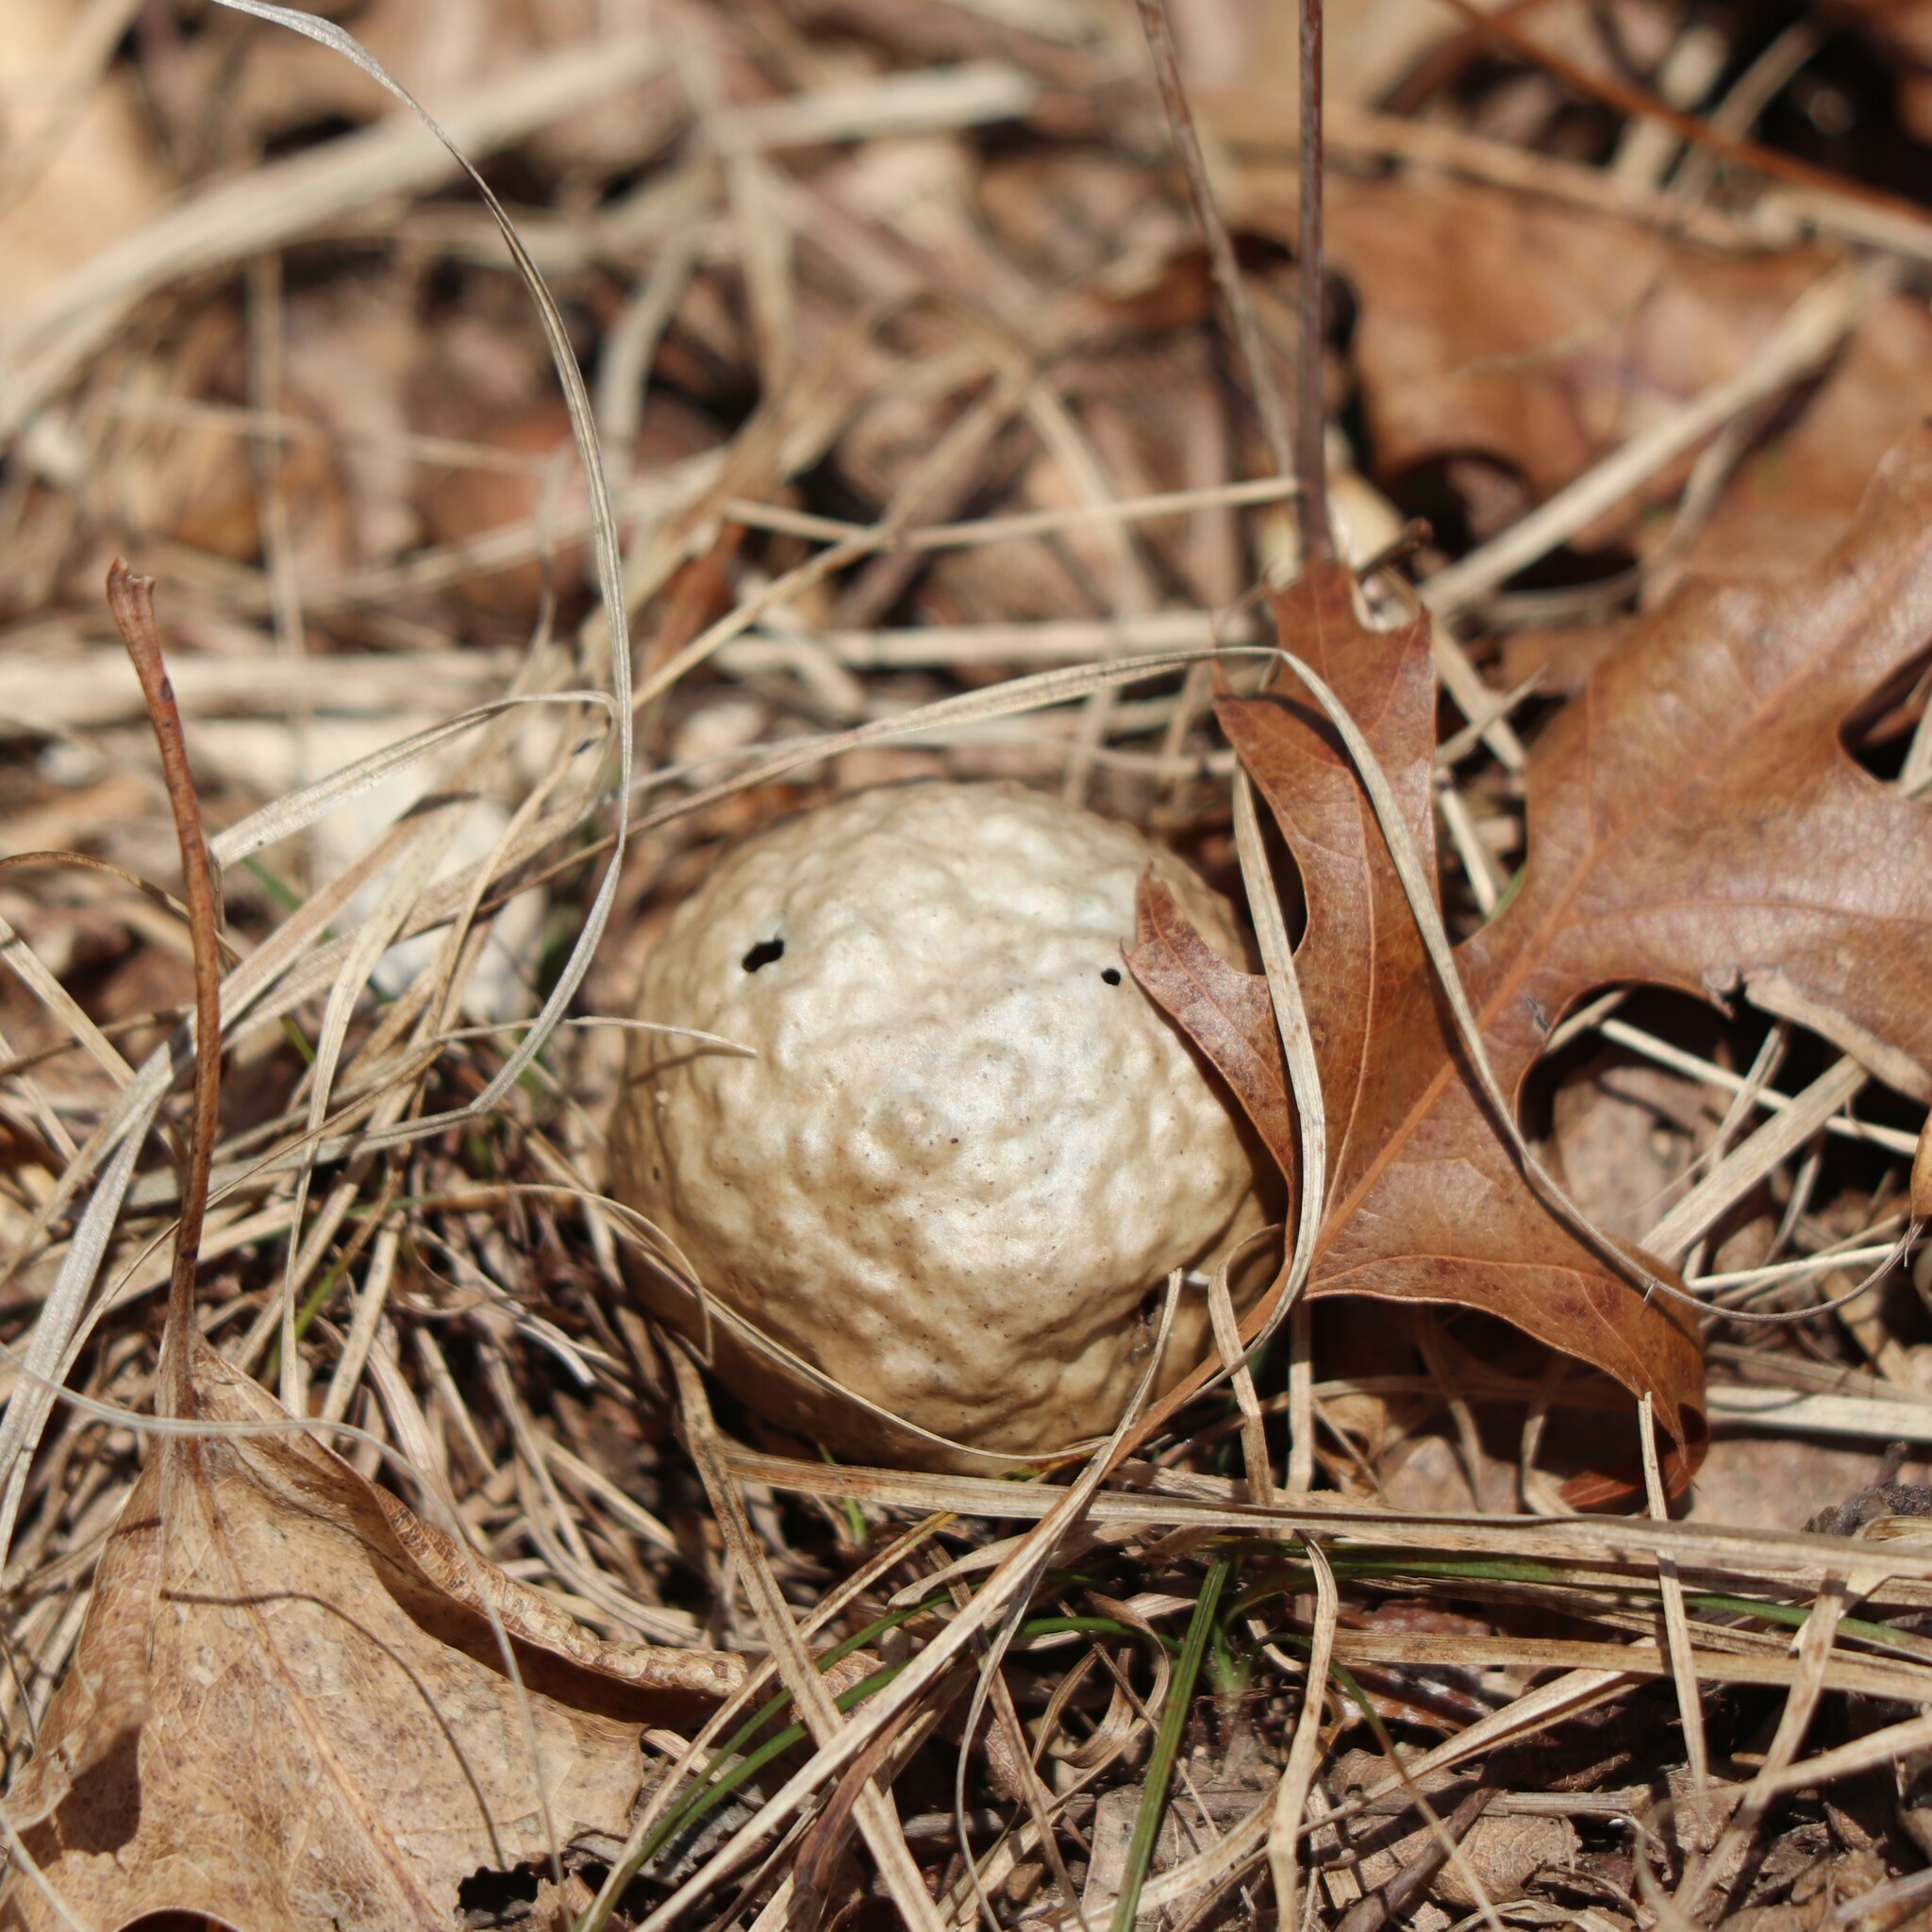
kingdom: Animalia
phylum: Arthropoda
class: Insecta
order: Hymenoptera
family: Cynipidae
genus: Amphibolips
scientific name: Amphibolips
